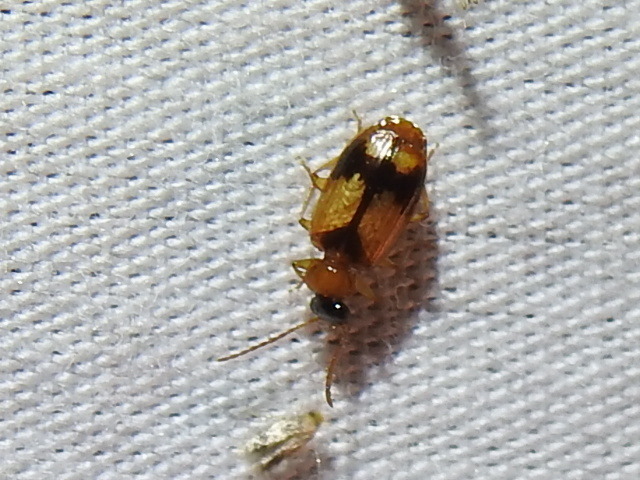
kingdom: Animalia
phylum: Arthropoda
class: Insecta
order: Coleoptera
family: Carabidae
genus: Lebia
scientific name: Lebia esurialis
